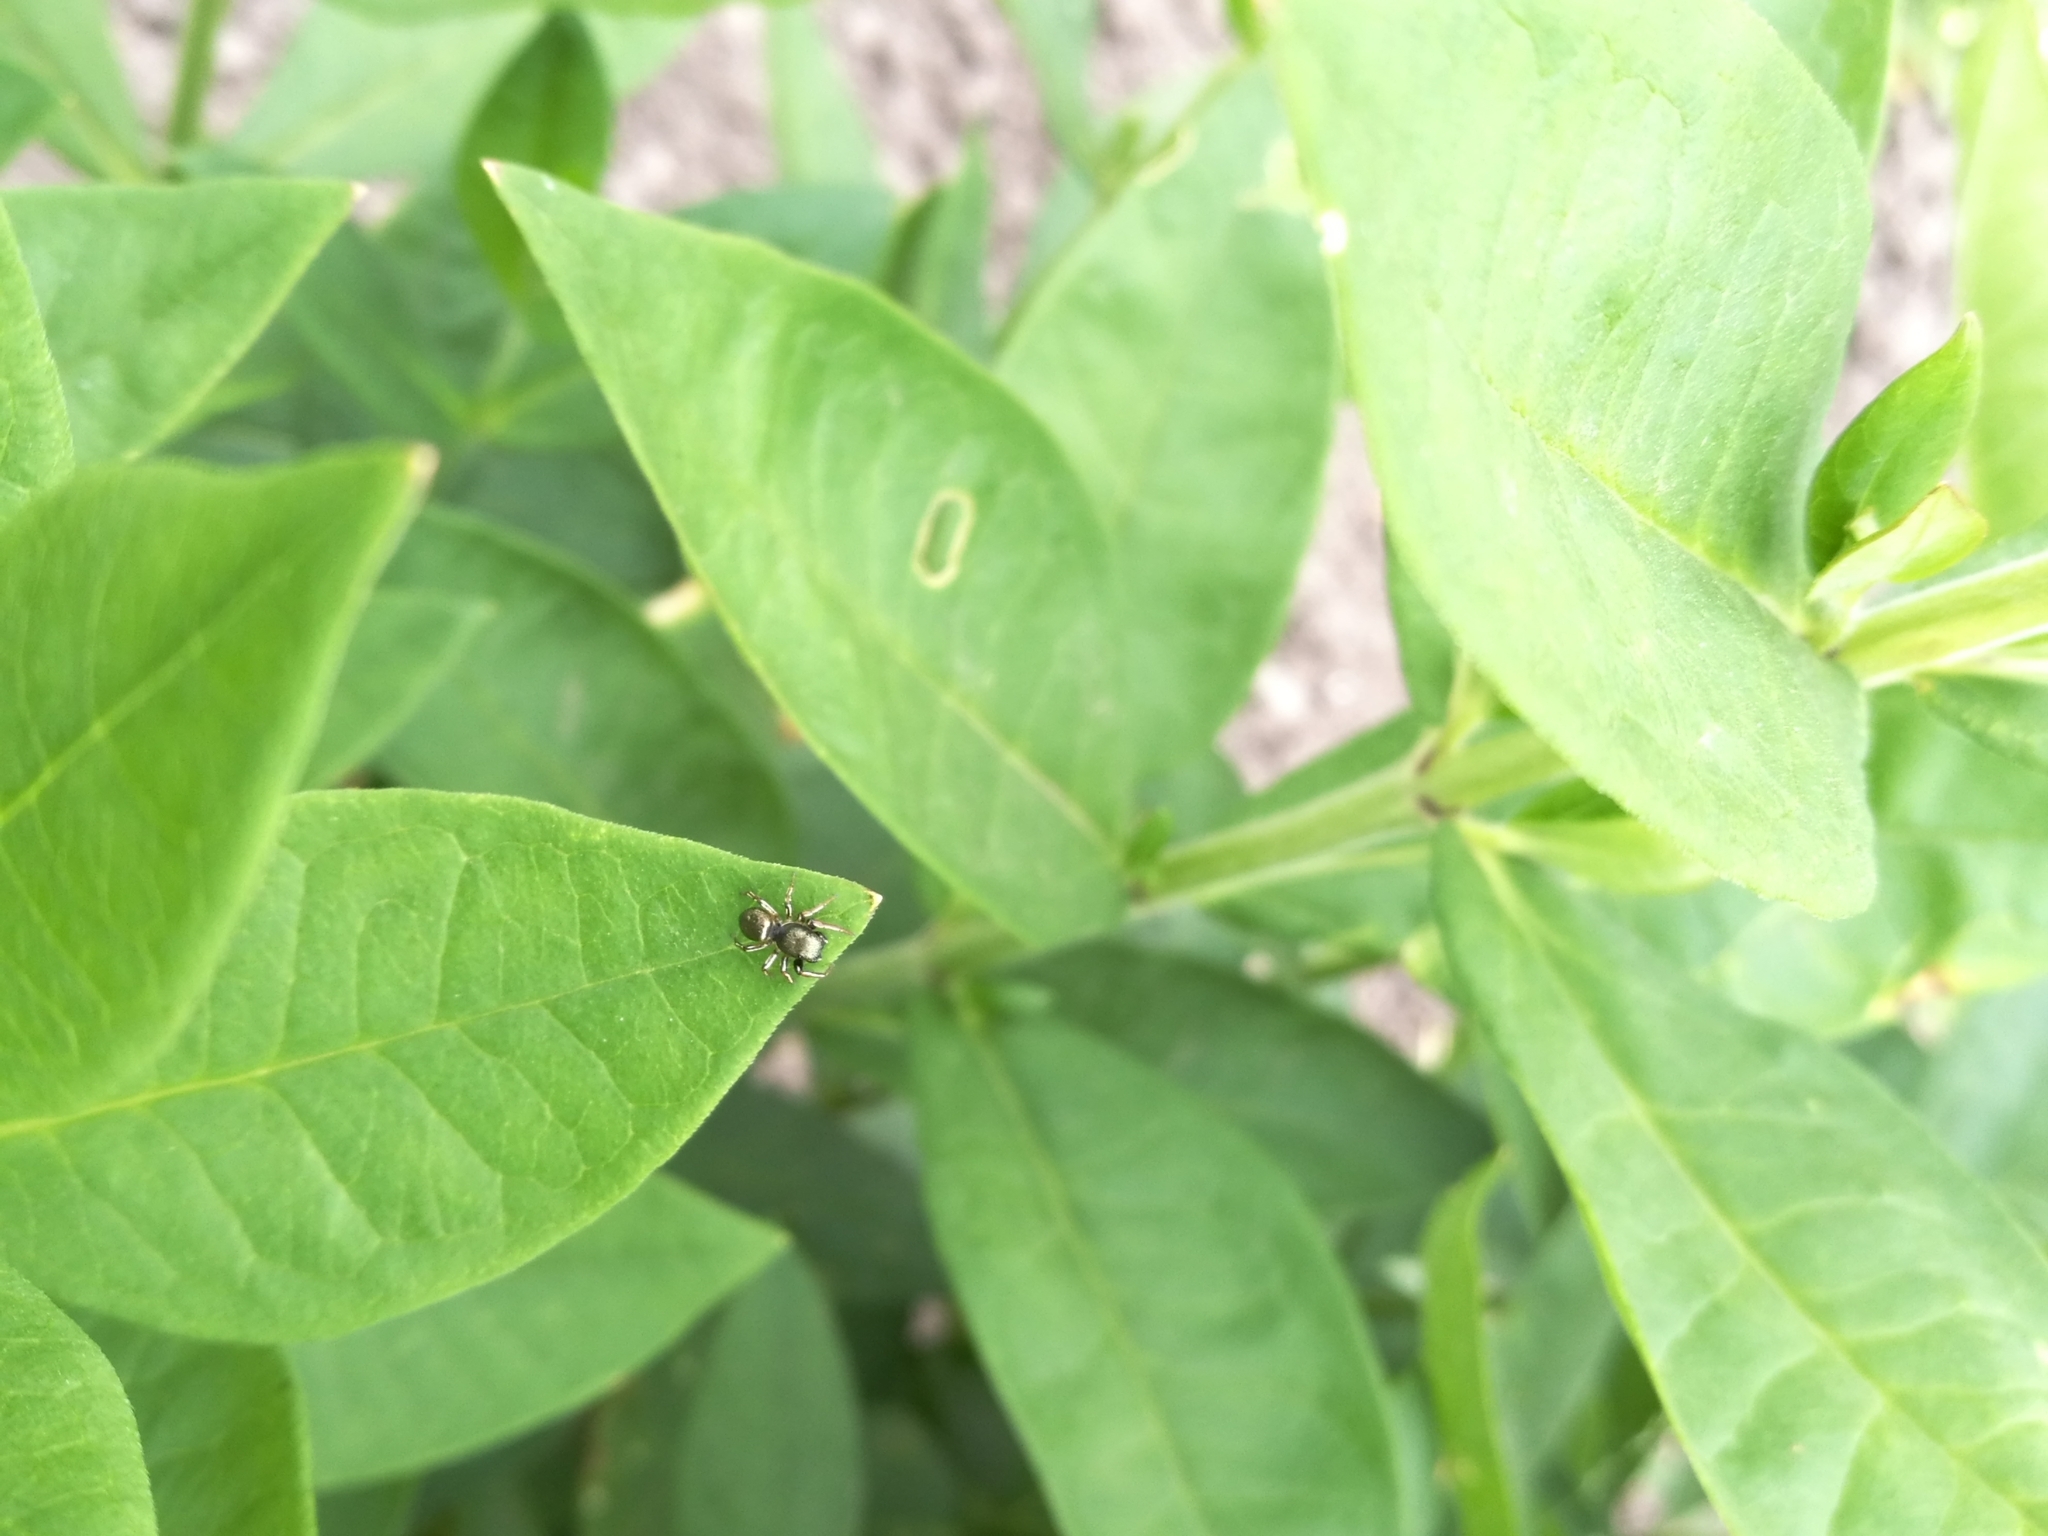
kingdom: Animalia
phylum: Arthropoda
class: Arachnida
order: Araneae
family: Salticidae
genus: Heliophanus
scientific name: Heliophanus auratus
